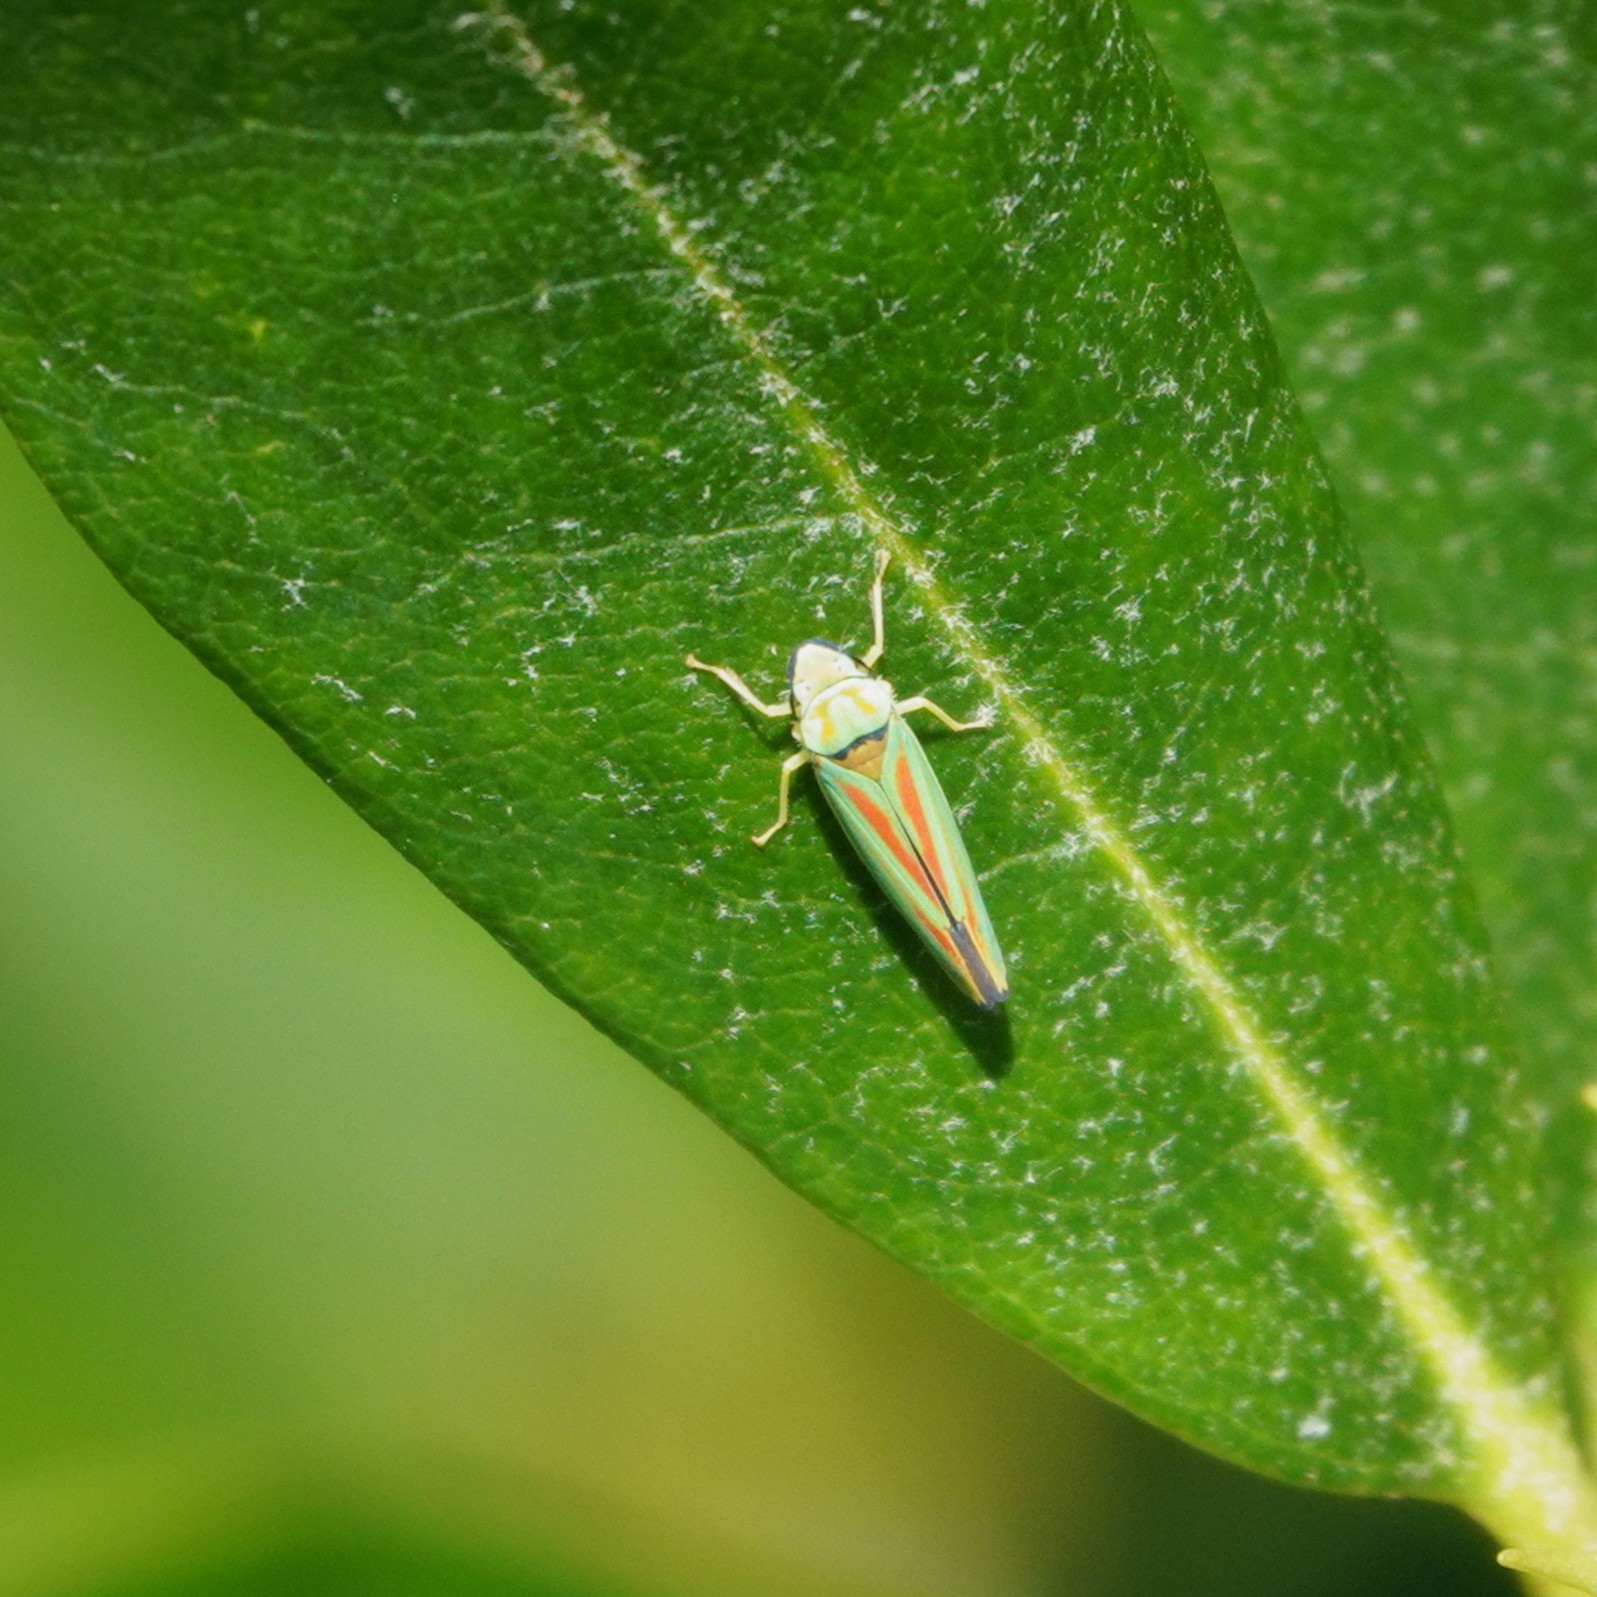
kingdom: Animalia
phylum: Arthropoda
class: Insecta
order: Hemiptera
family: Cicadellidae
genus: Graphocephala
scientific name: Graphocephala fennahi
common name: Rhododendron leafhopper
